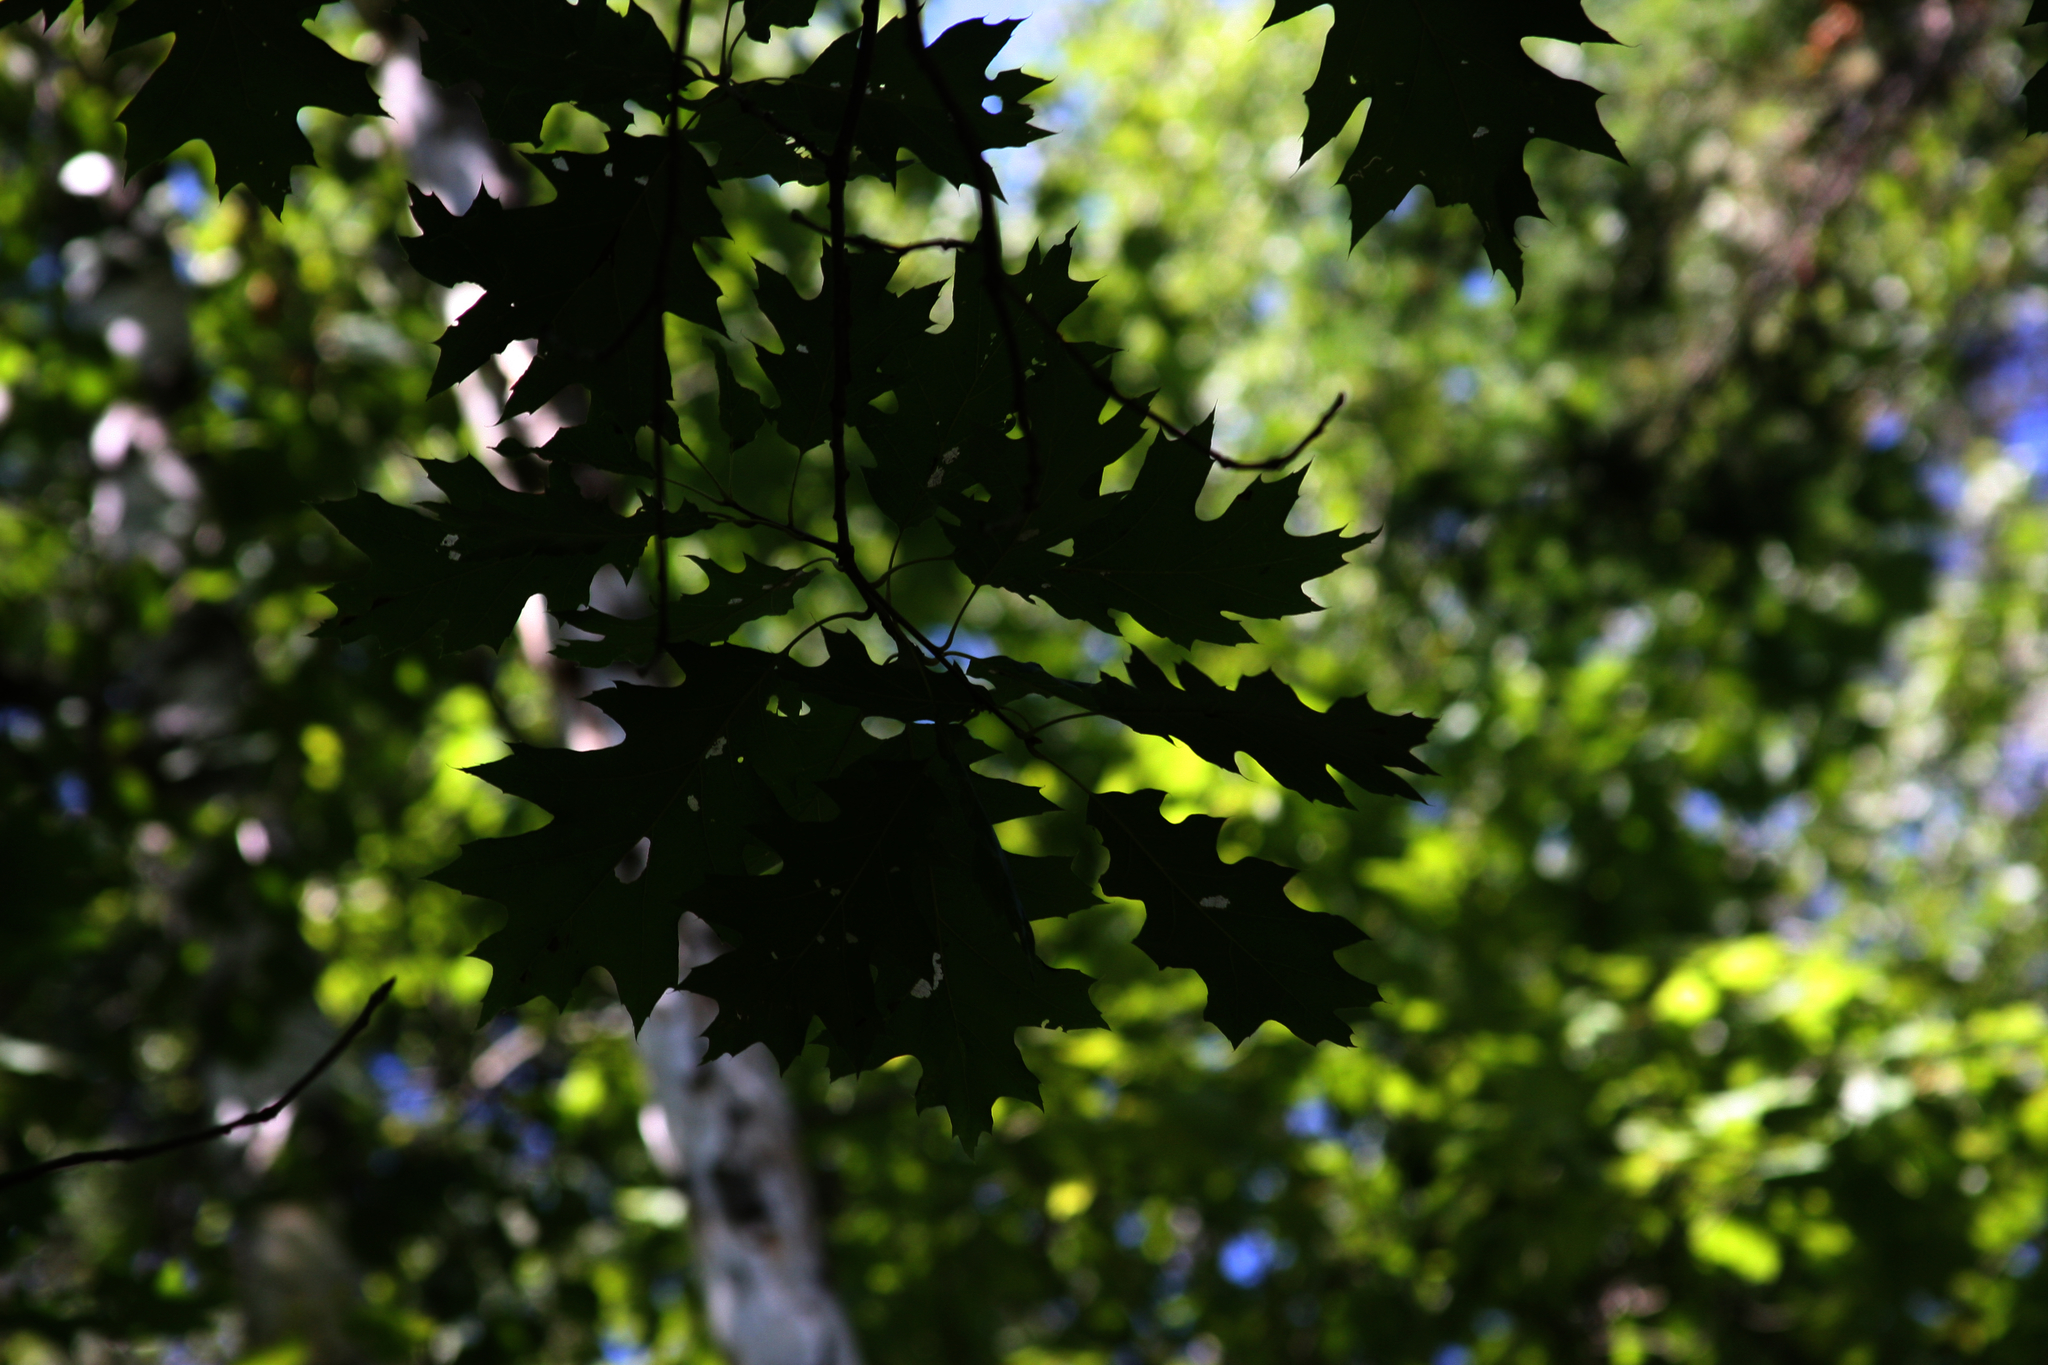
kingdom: Plantae
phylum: Tracheophyta
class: Magnoliopsida
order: Fagales
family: Fagaceae
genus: Quercus
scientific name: Quercus rubra
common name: Red oak
